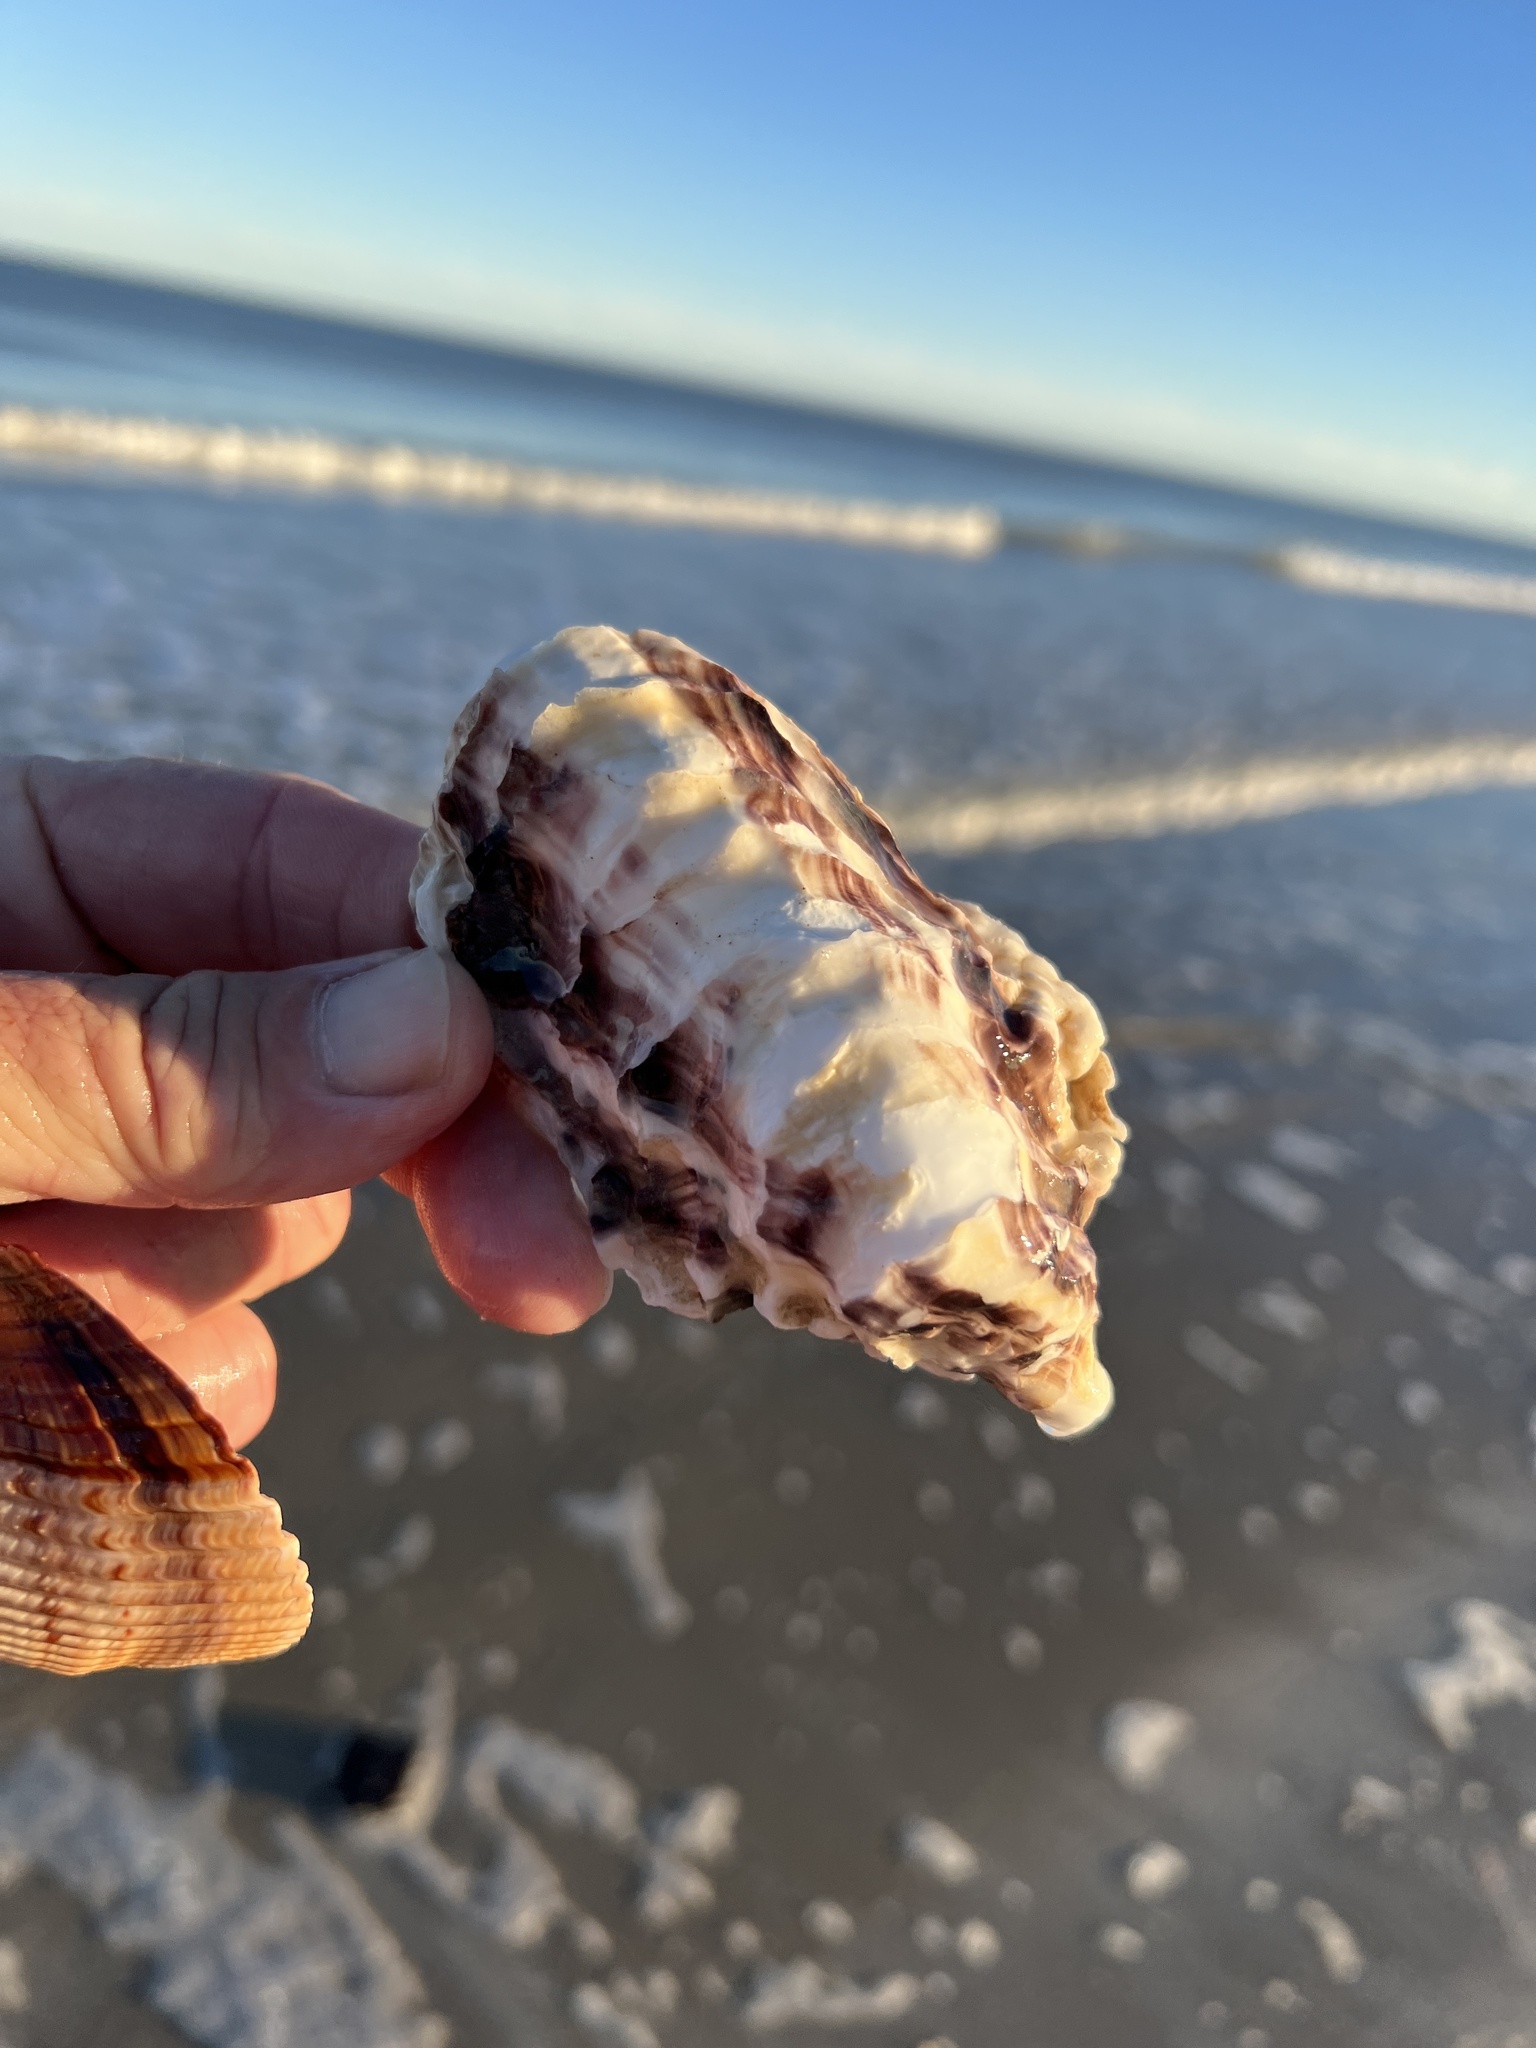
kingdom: Animalia
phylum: Mollusca
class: Bivalvia
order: Ostreida
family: Ostreidae
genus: Crassostrea
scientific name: Crassostrea virginica
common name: American oyster
